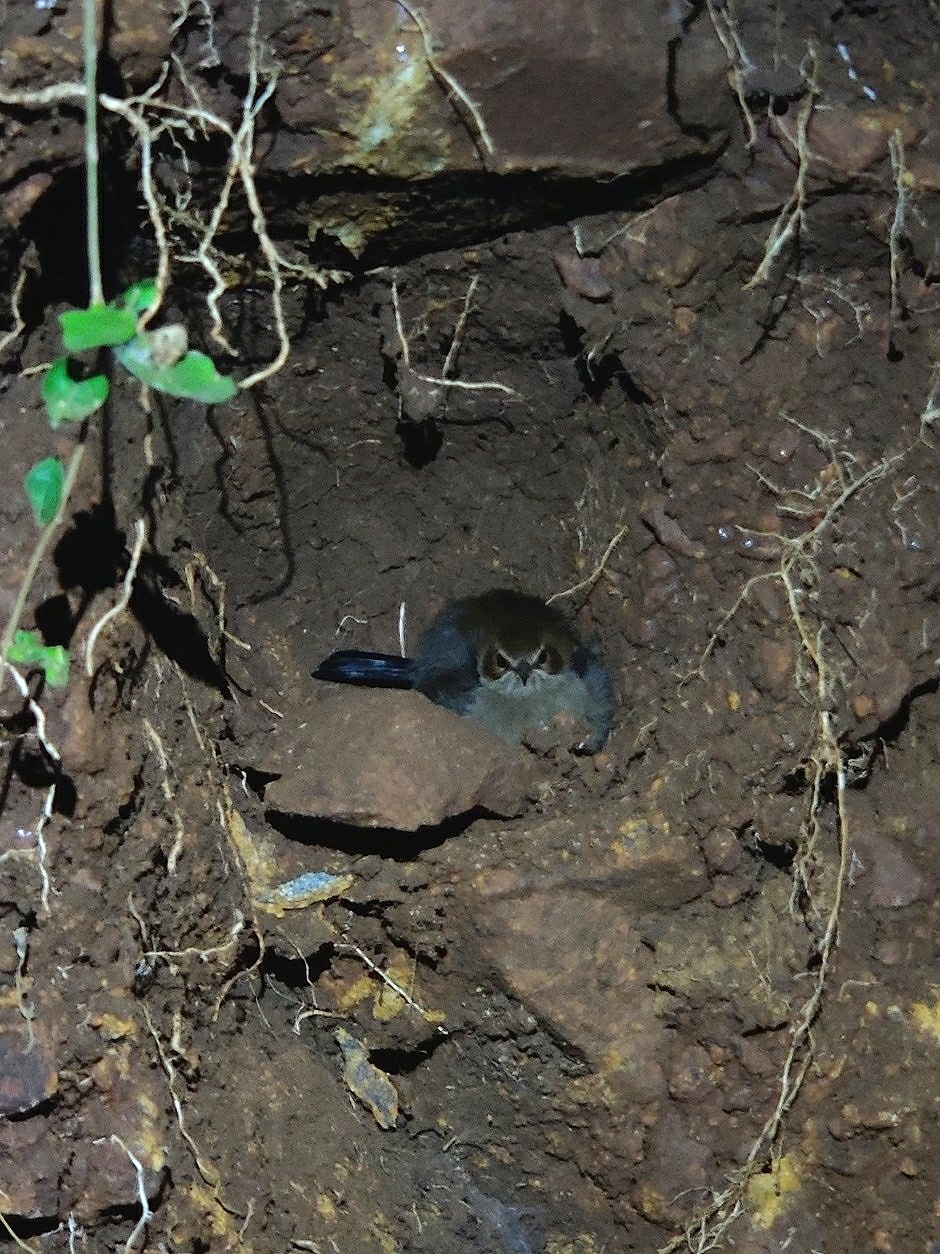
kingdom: Animalia
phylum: Chordata
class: Aves
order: Passeriformes
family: Muscicapidae
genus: Saxicoloides
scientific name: Saxicoloides fulicatus
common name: Indian robin
